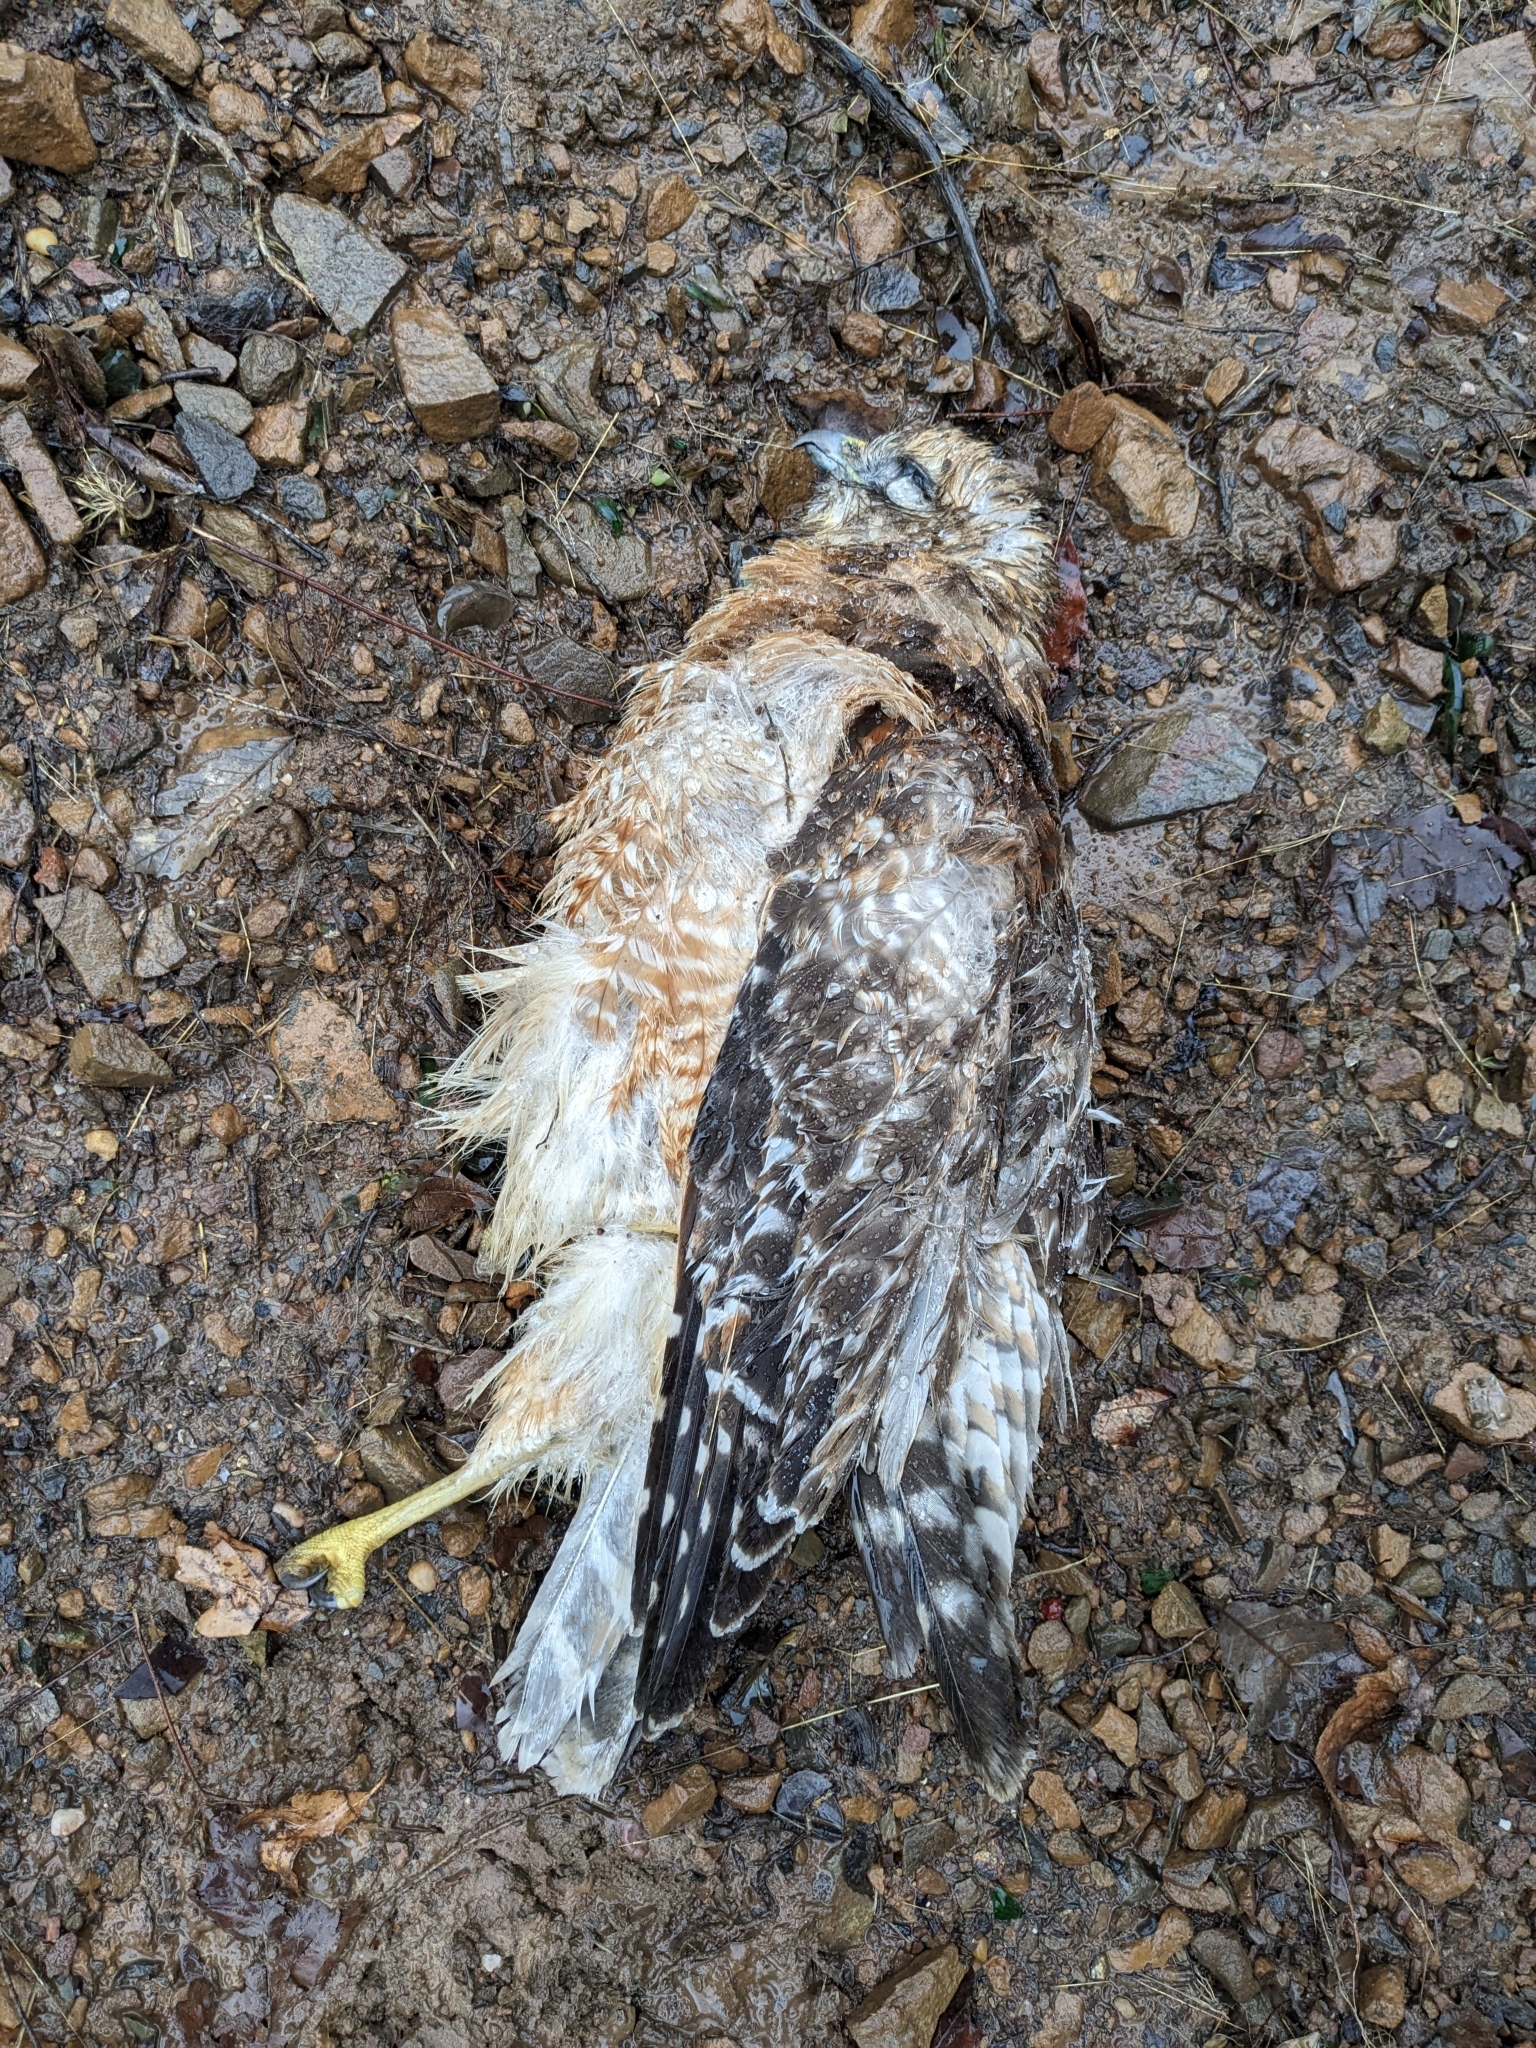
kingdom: Animalia
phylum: Chordata
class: Aves
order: Accipitriformes
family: Accipitridae
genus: Buteo
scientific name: Buteo lineatus
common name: Red-shouldered hawk
